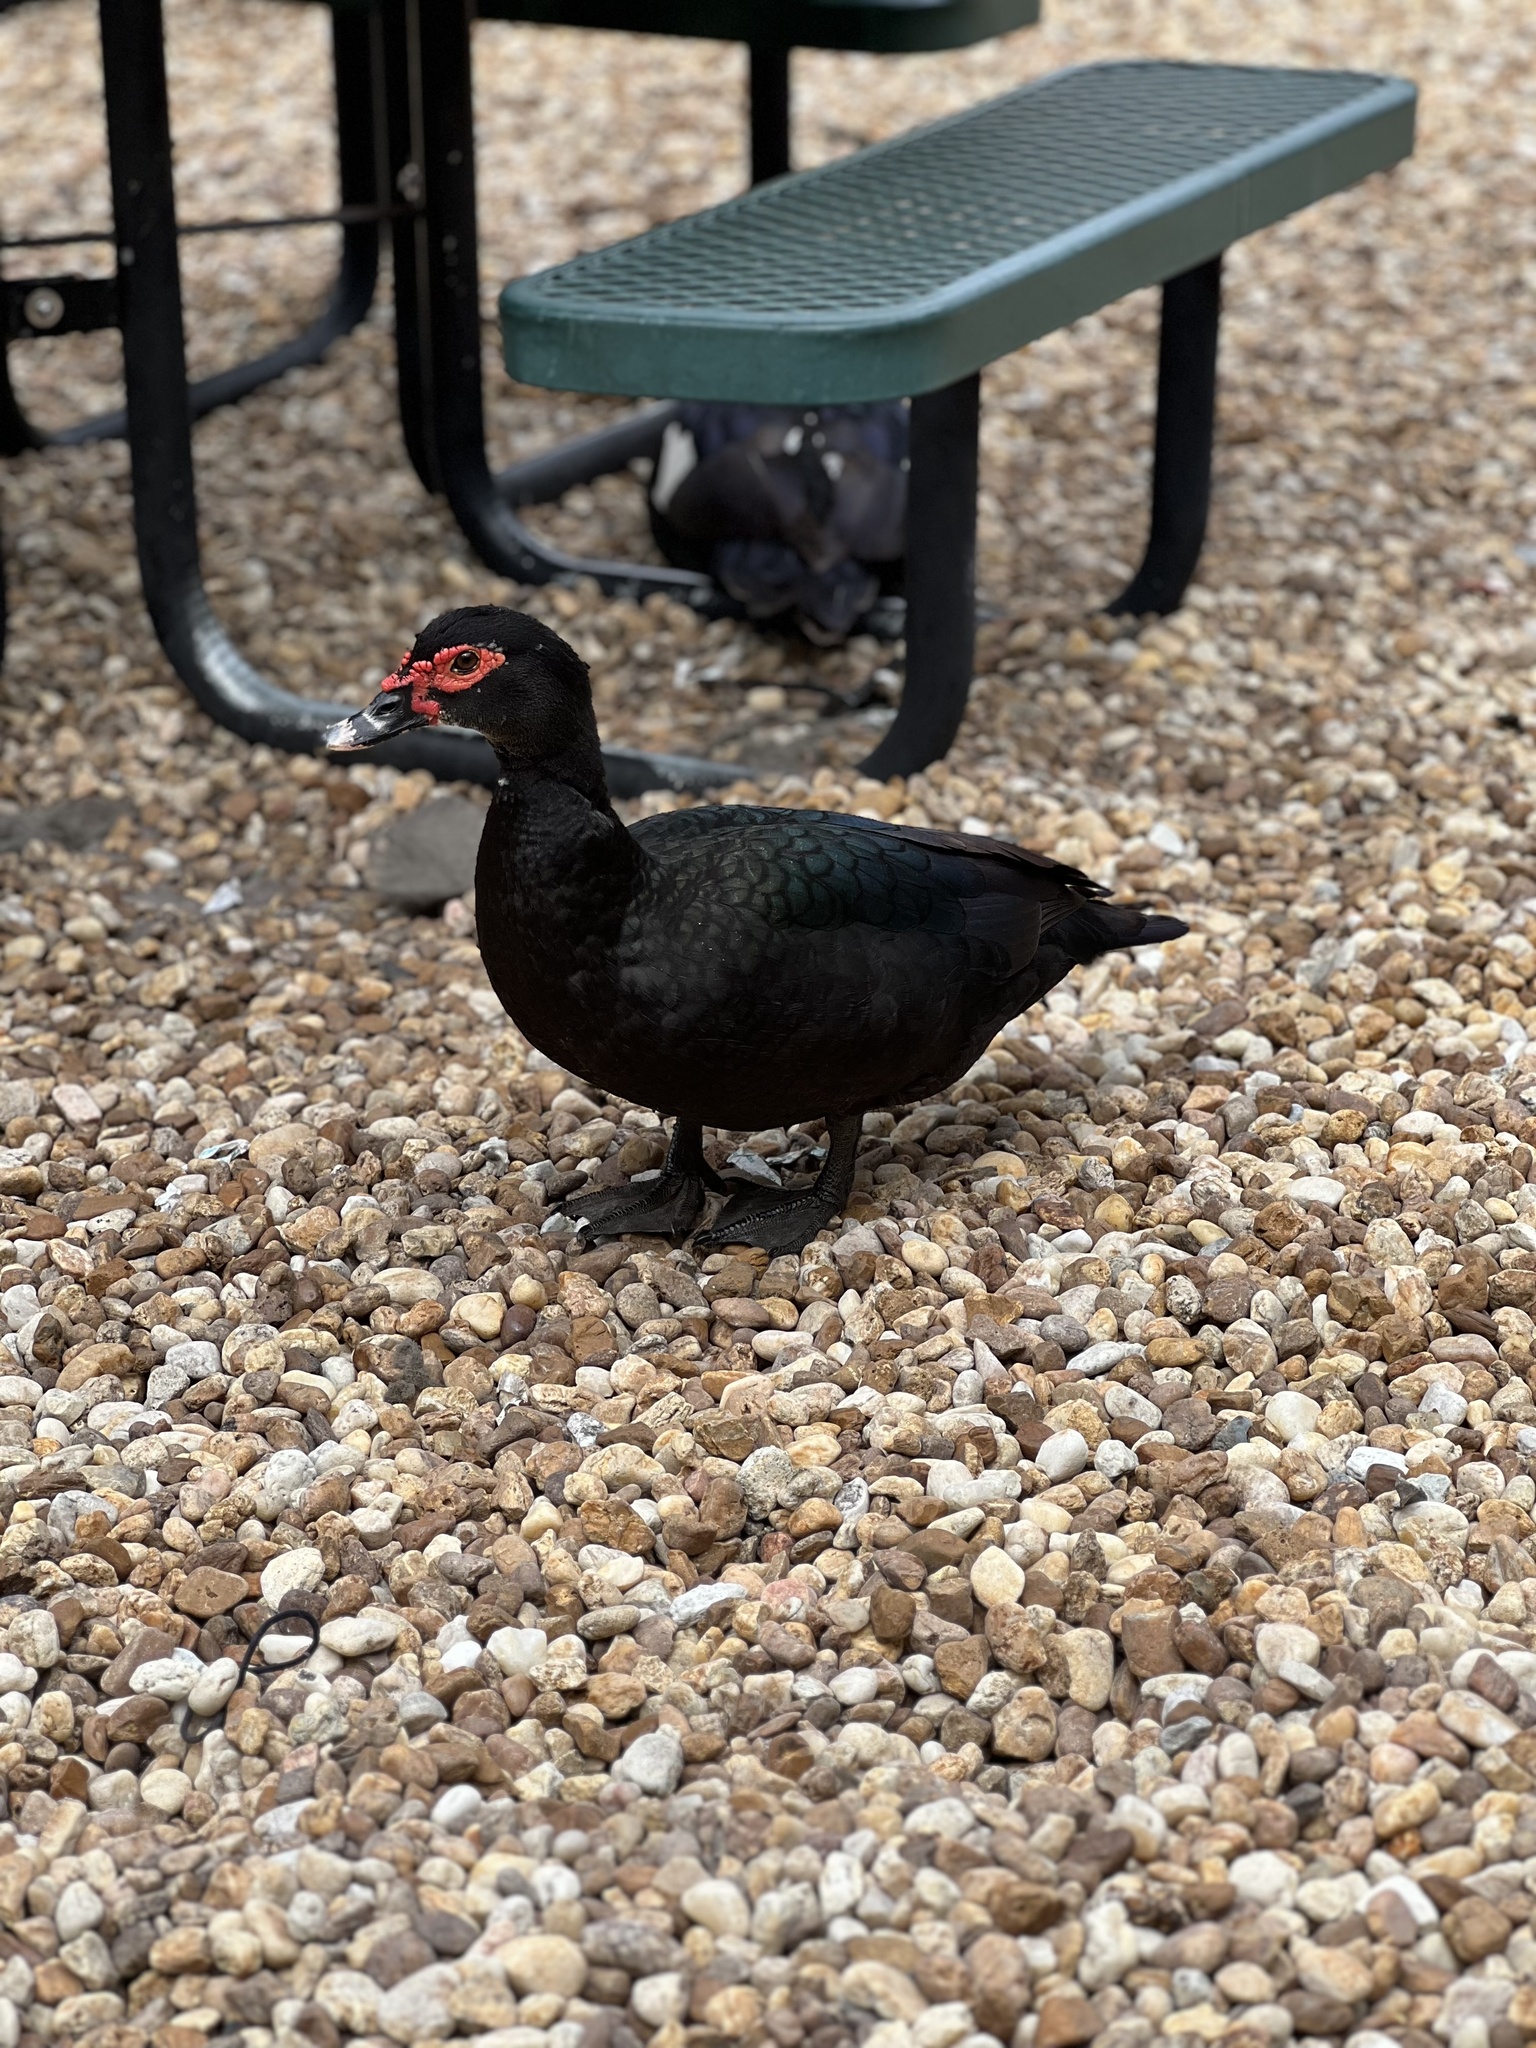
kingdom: Animalia
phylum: Chordata
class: Aves
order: Anseriformes
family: Anatidae
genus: Cairina
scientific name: Cairina moschata
